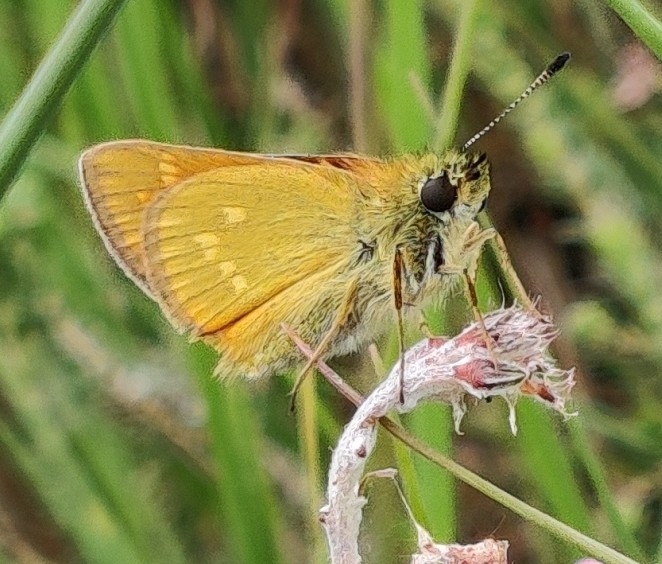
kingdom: Animalia
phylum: Arthropoda
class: Insecta
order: Lepidoptera
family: Hesperiidae
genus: Ochlodes
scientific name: Ochlodes venata
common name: Large skipper
